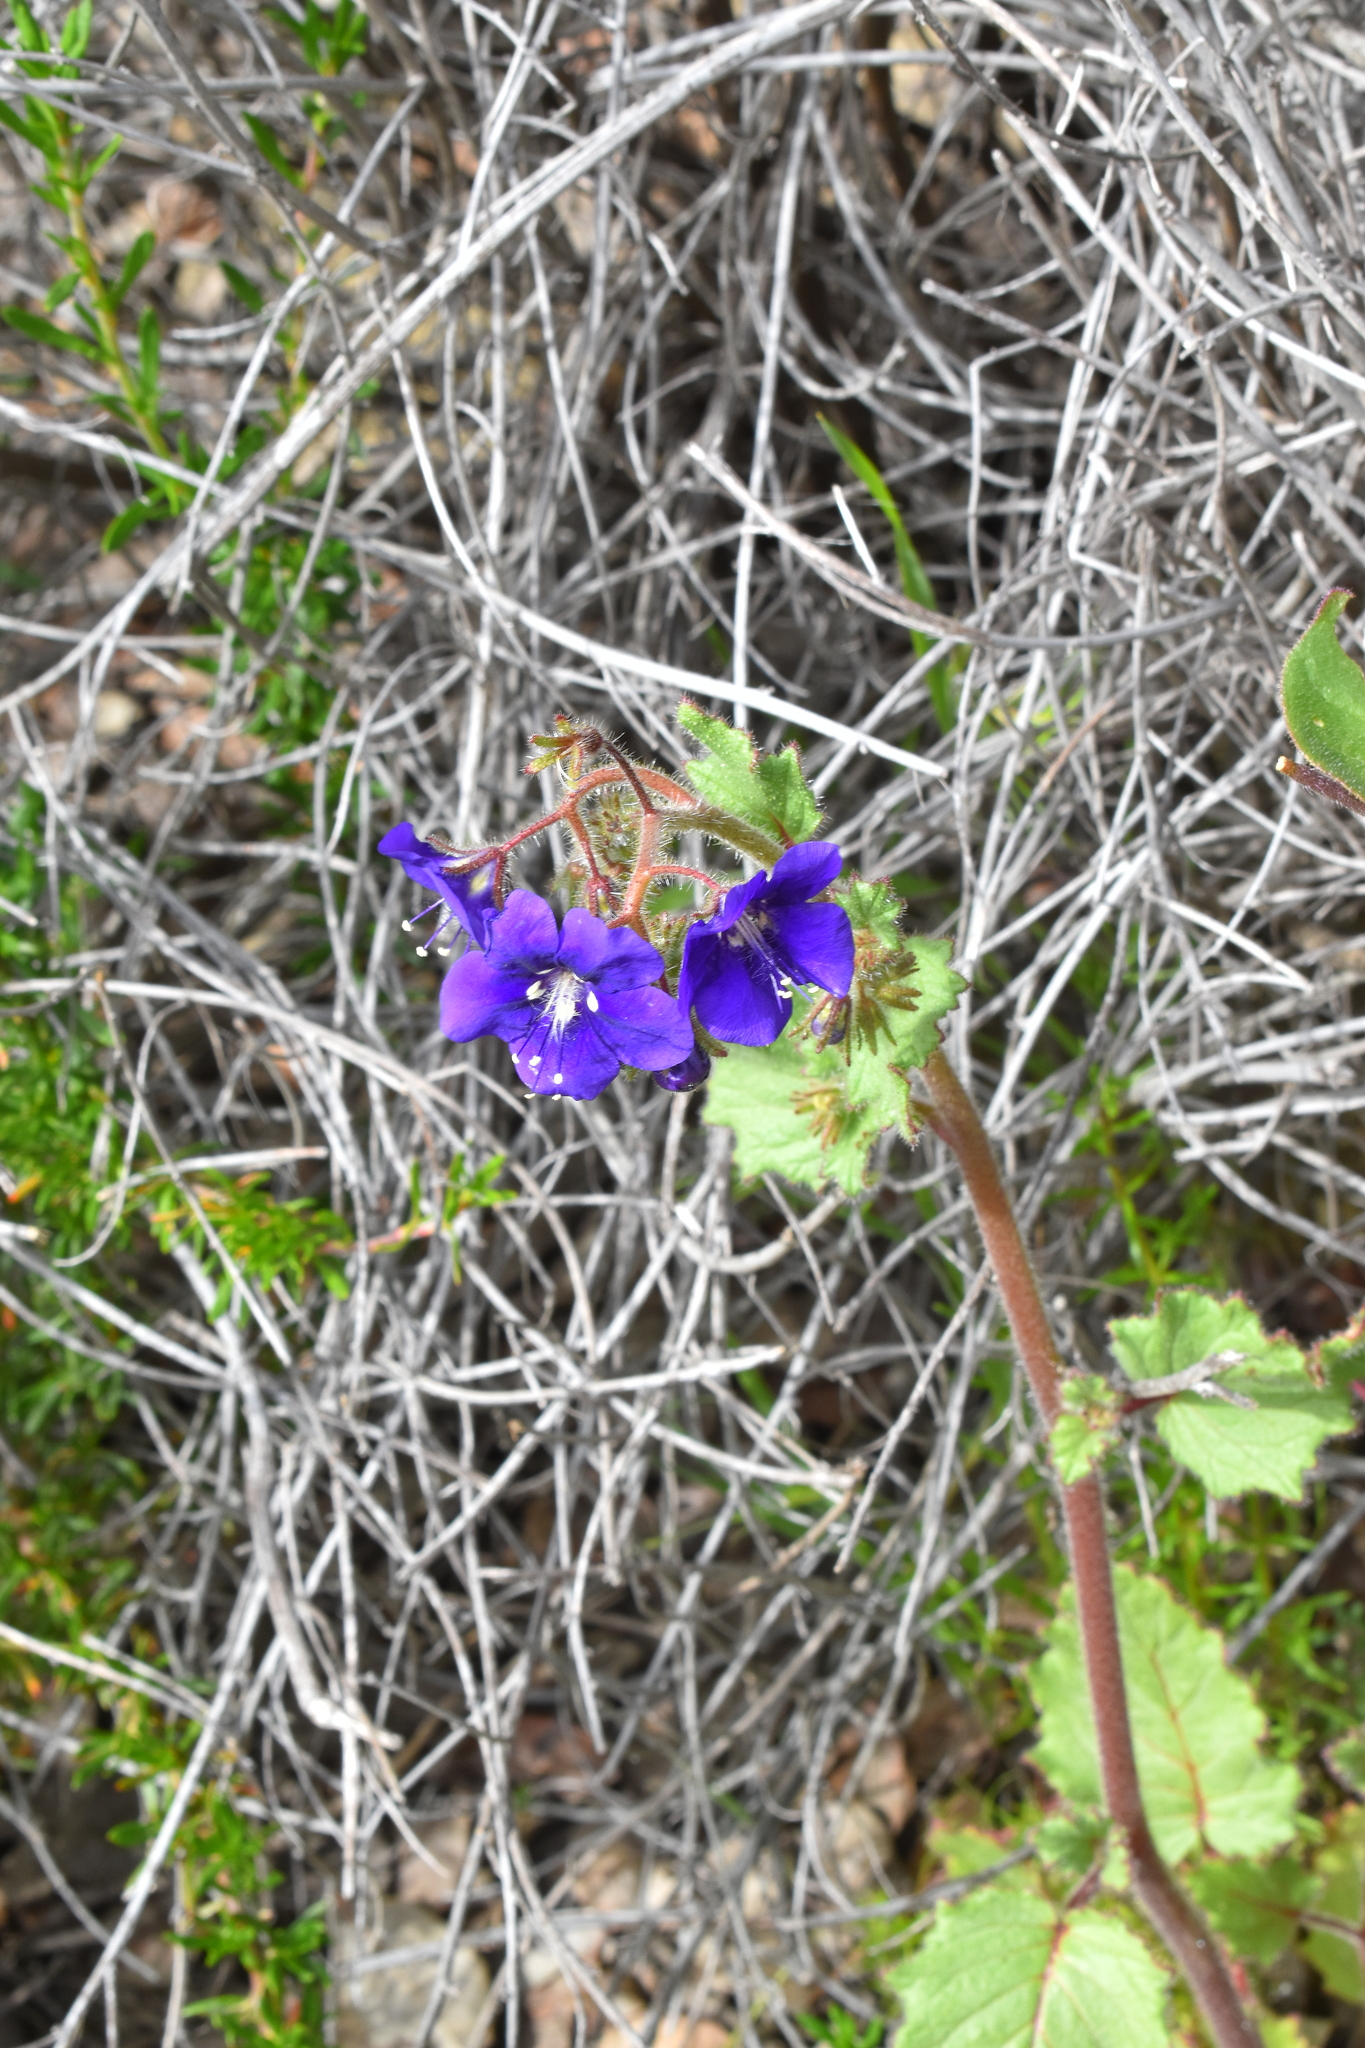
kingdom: Plantae
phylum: Tracheophyta
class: Magnoliopsida
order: Boraginales
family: Hydrophyllaceae
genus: Phacelia
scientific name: Phacelia parryi
